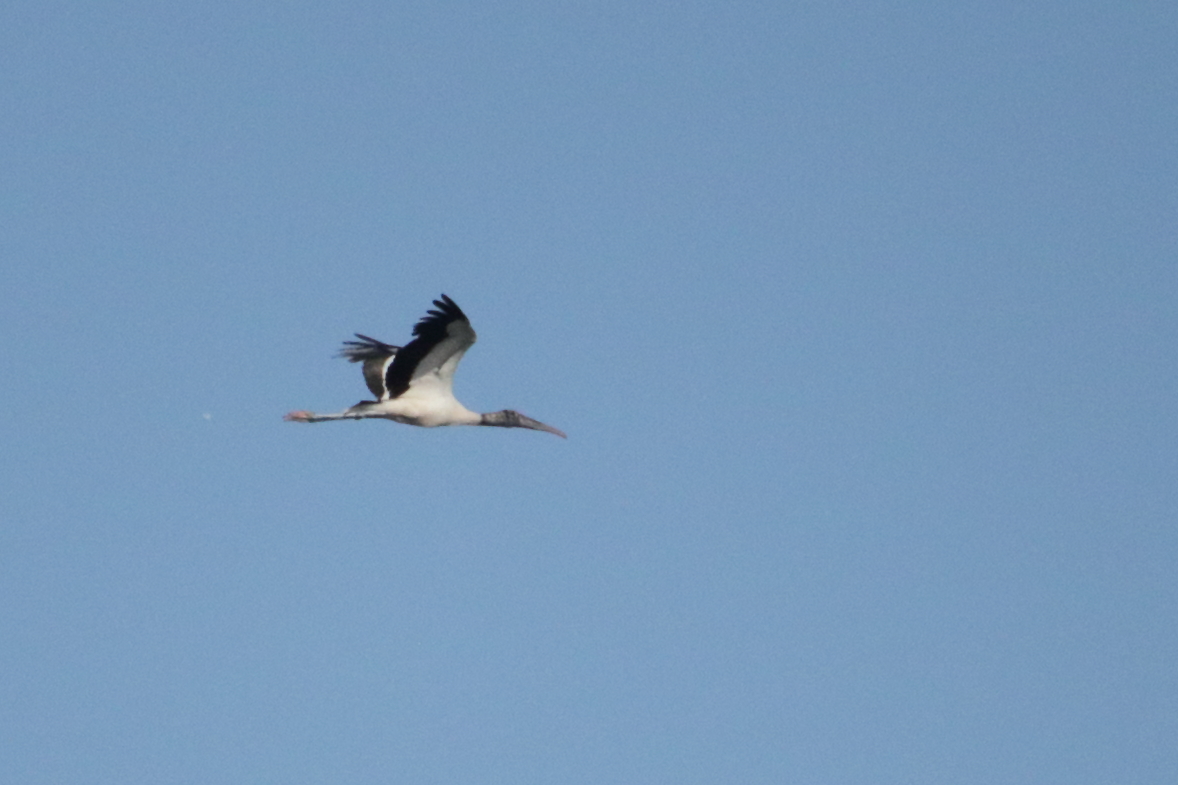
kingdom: Animalia
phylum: Chordata
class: Aves
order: Ciconiiformes
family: Ciconiidae
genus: Mycteria
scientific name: Mycteria americana
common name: Wood stork
